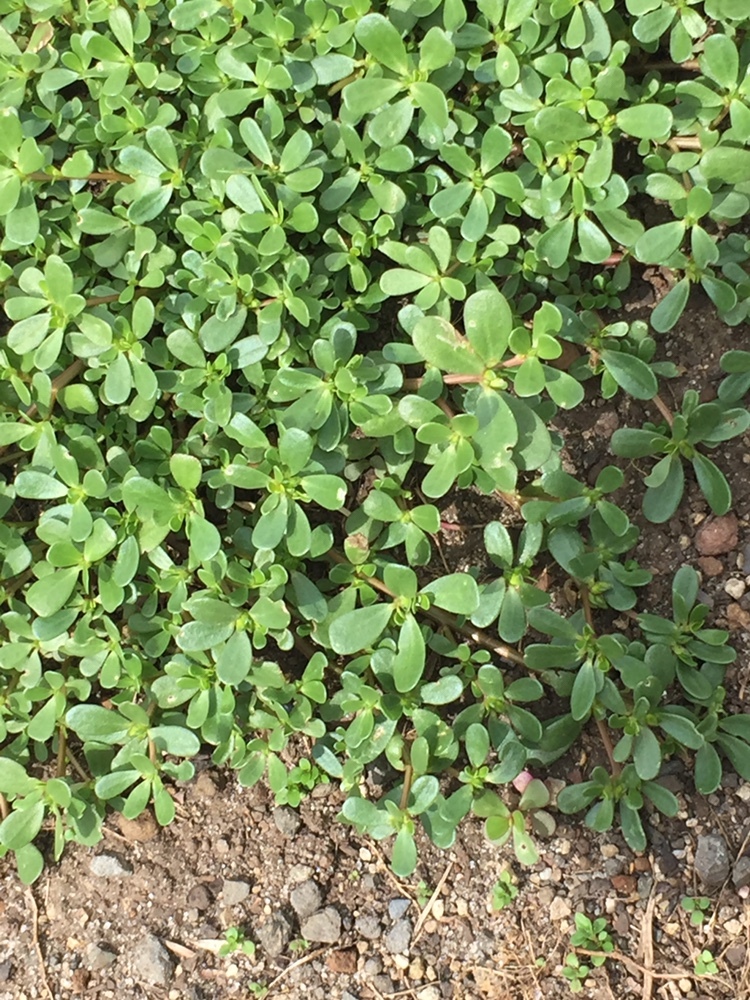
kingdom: Plantae
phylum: Tracheophyta
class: Magnoliopsida
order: Caryophyllales
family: Portulacaceae
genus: Portulaca
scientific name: Portulaca oleracea
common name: Common purslane
